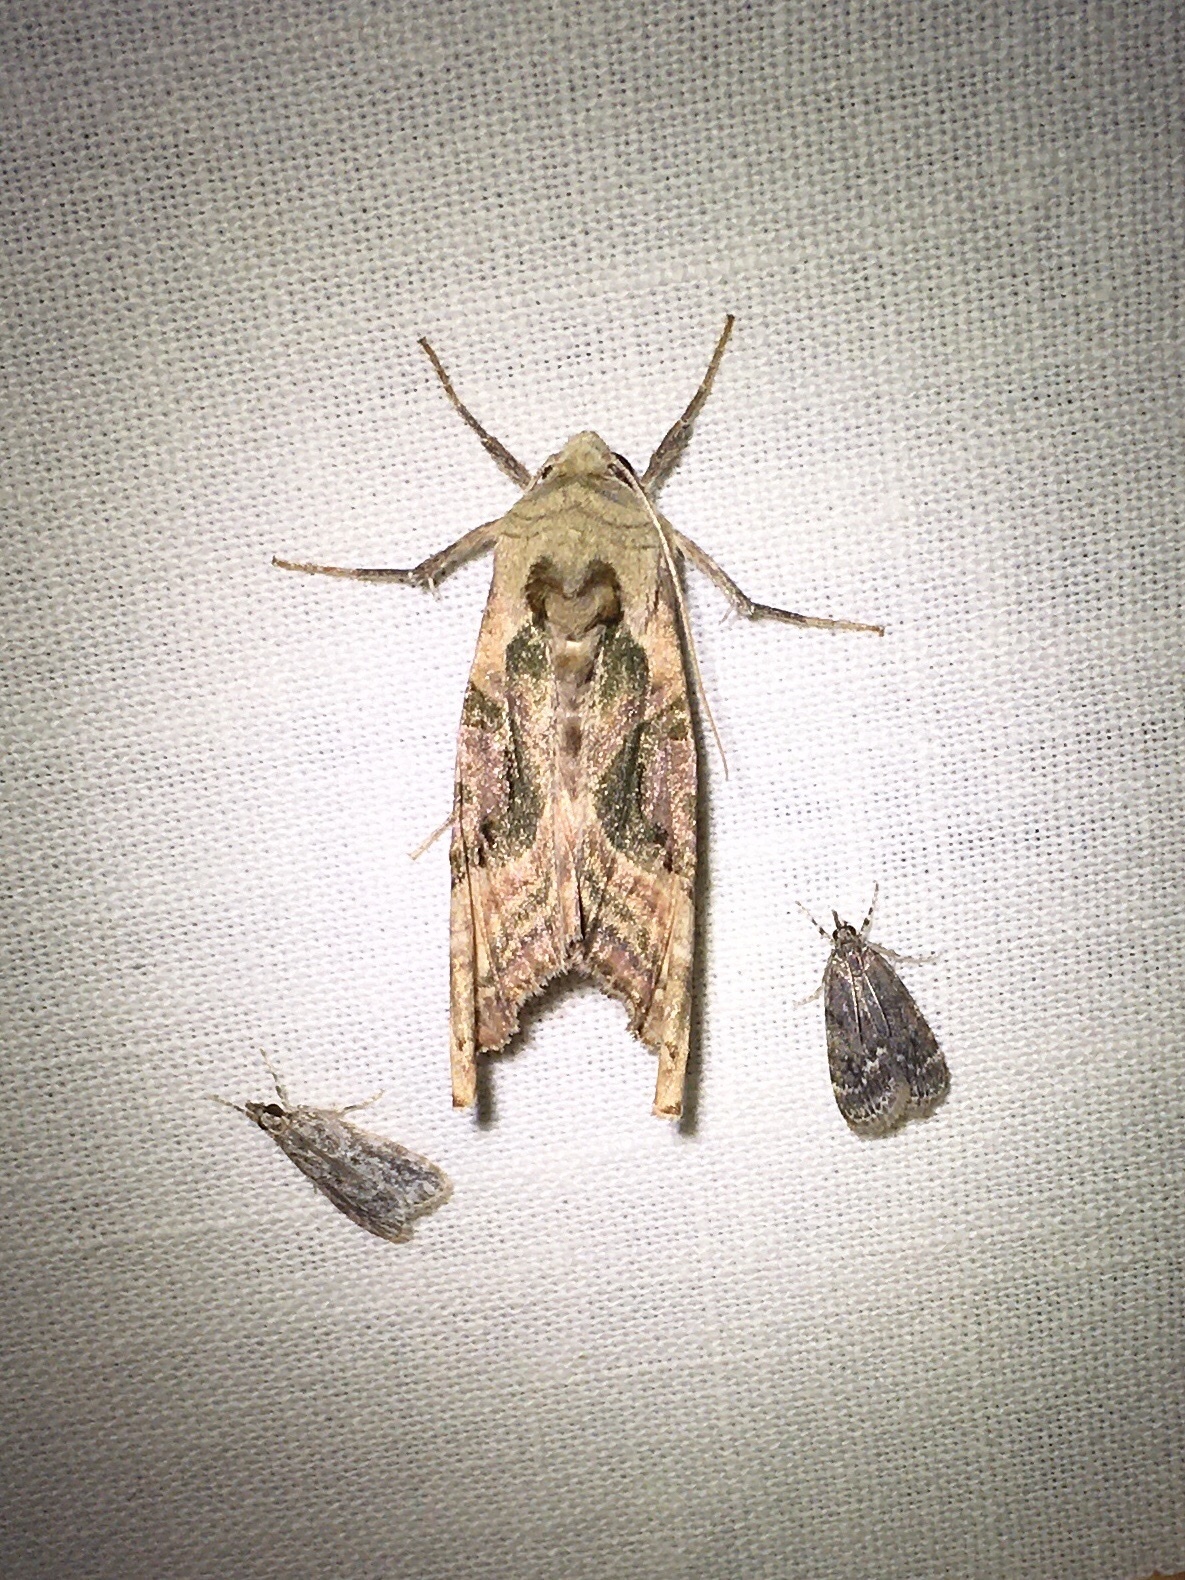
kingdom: Animalia
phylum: Arthropoda
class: Insecta
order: Lepidoptera
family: Noctuidae
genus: Phlogophora
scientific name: Phlogophora iris
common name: Olive angle shades
